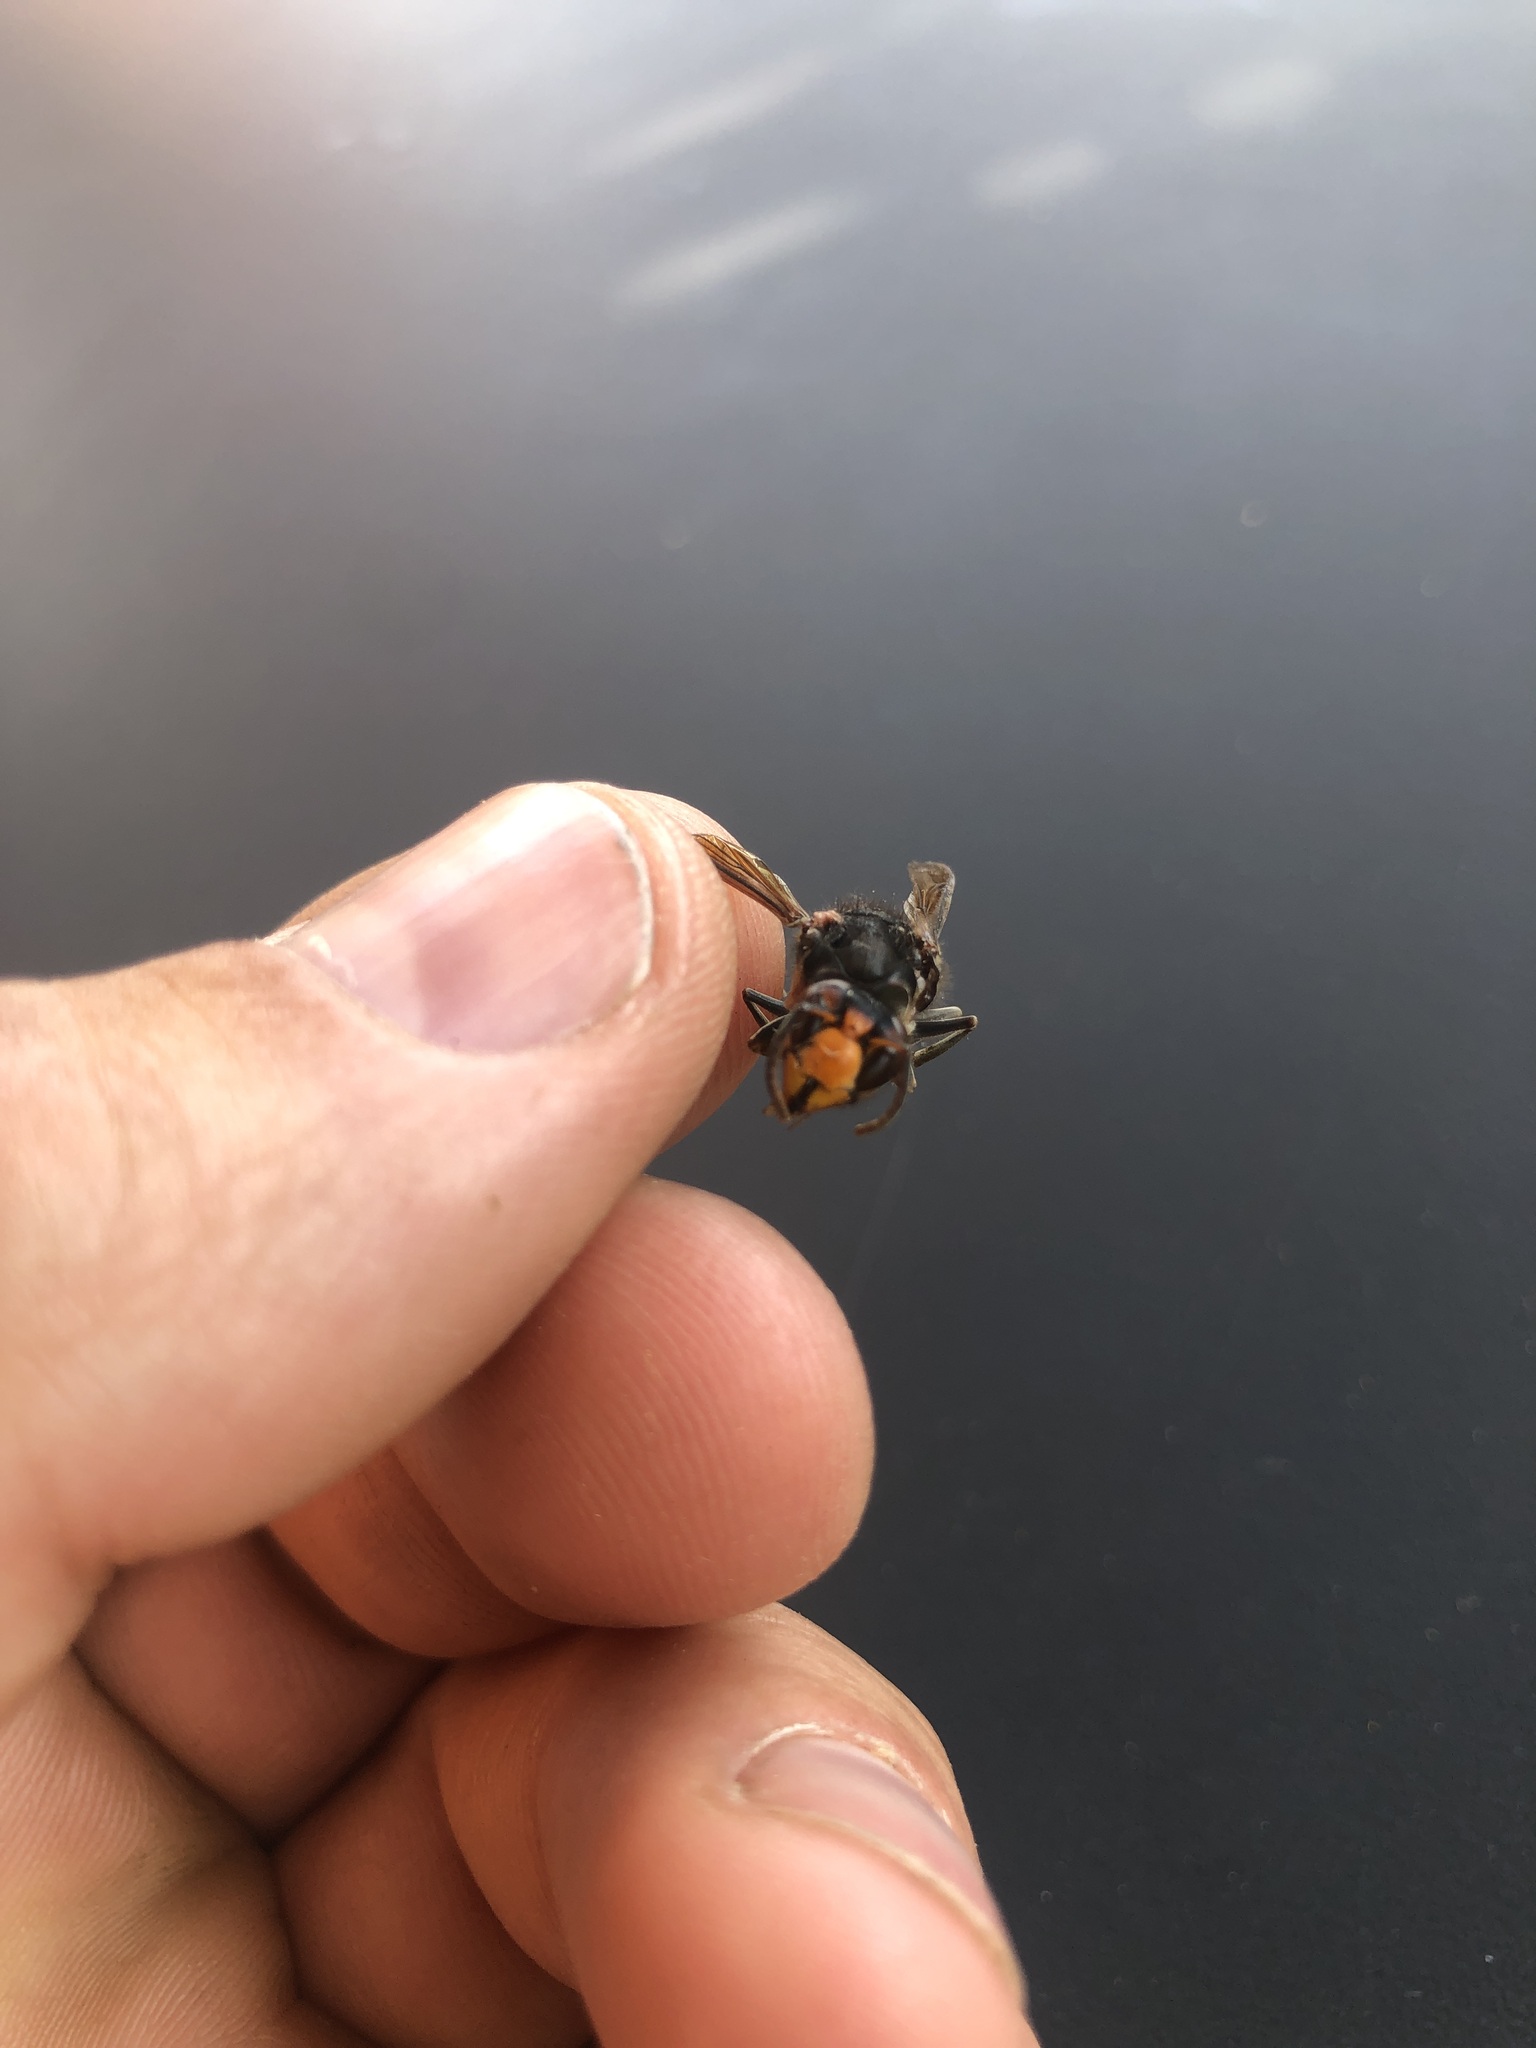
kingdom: Animalia
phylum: Arthropoda
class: Insecta
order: Hymenoptera
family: Vespidae
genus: Vespa
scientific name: Vespa velutina
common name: Asian hornet
